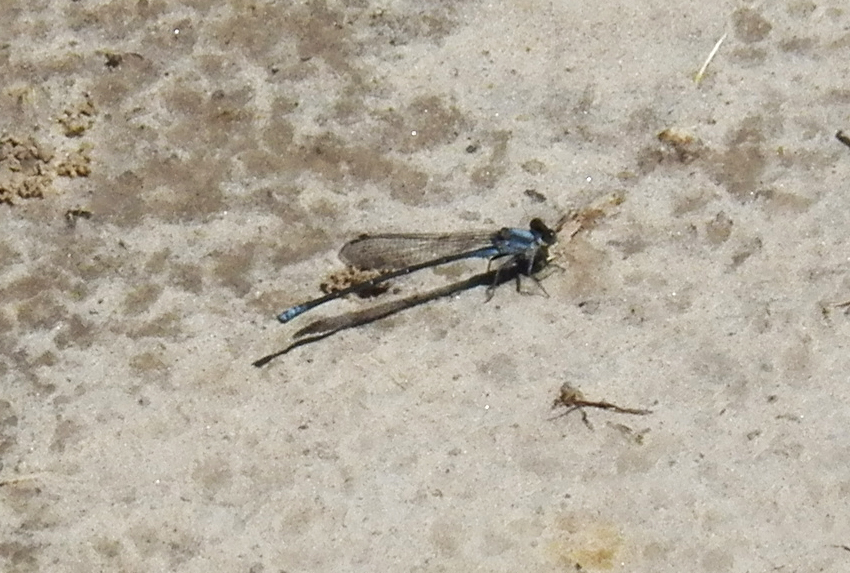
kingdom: Animalia
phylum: Arthropoda
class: Insecta
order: Odonata
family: Coenagrionidae
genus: Argia
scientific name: Argia moesta
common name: Powdered dancer
